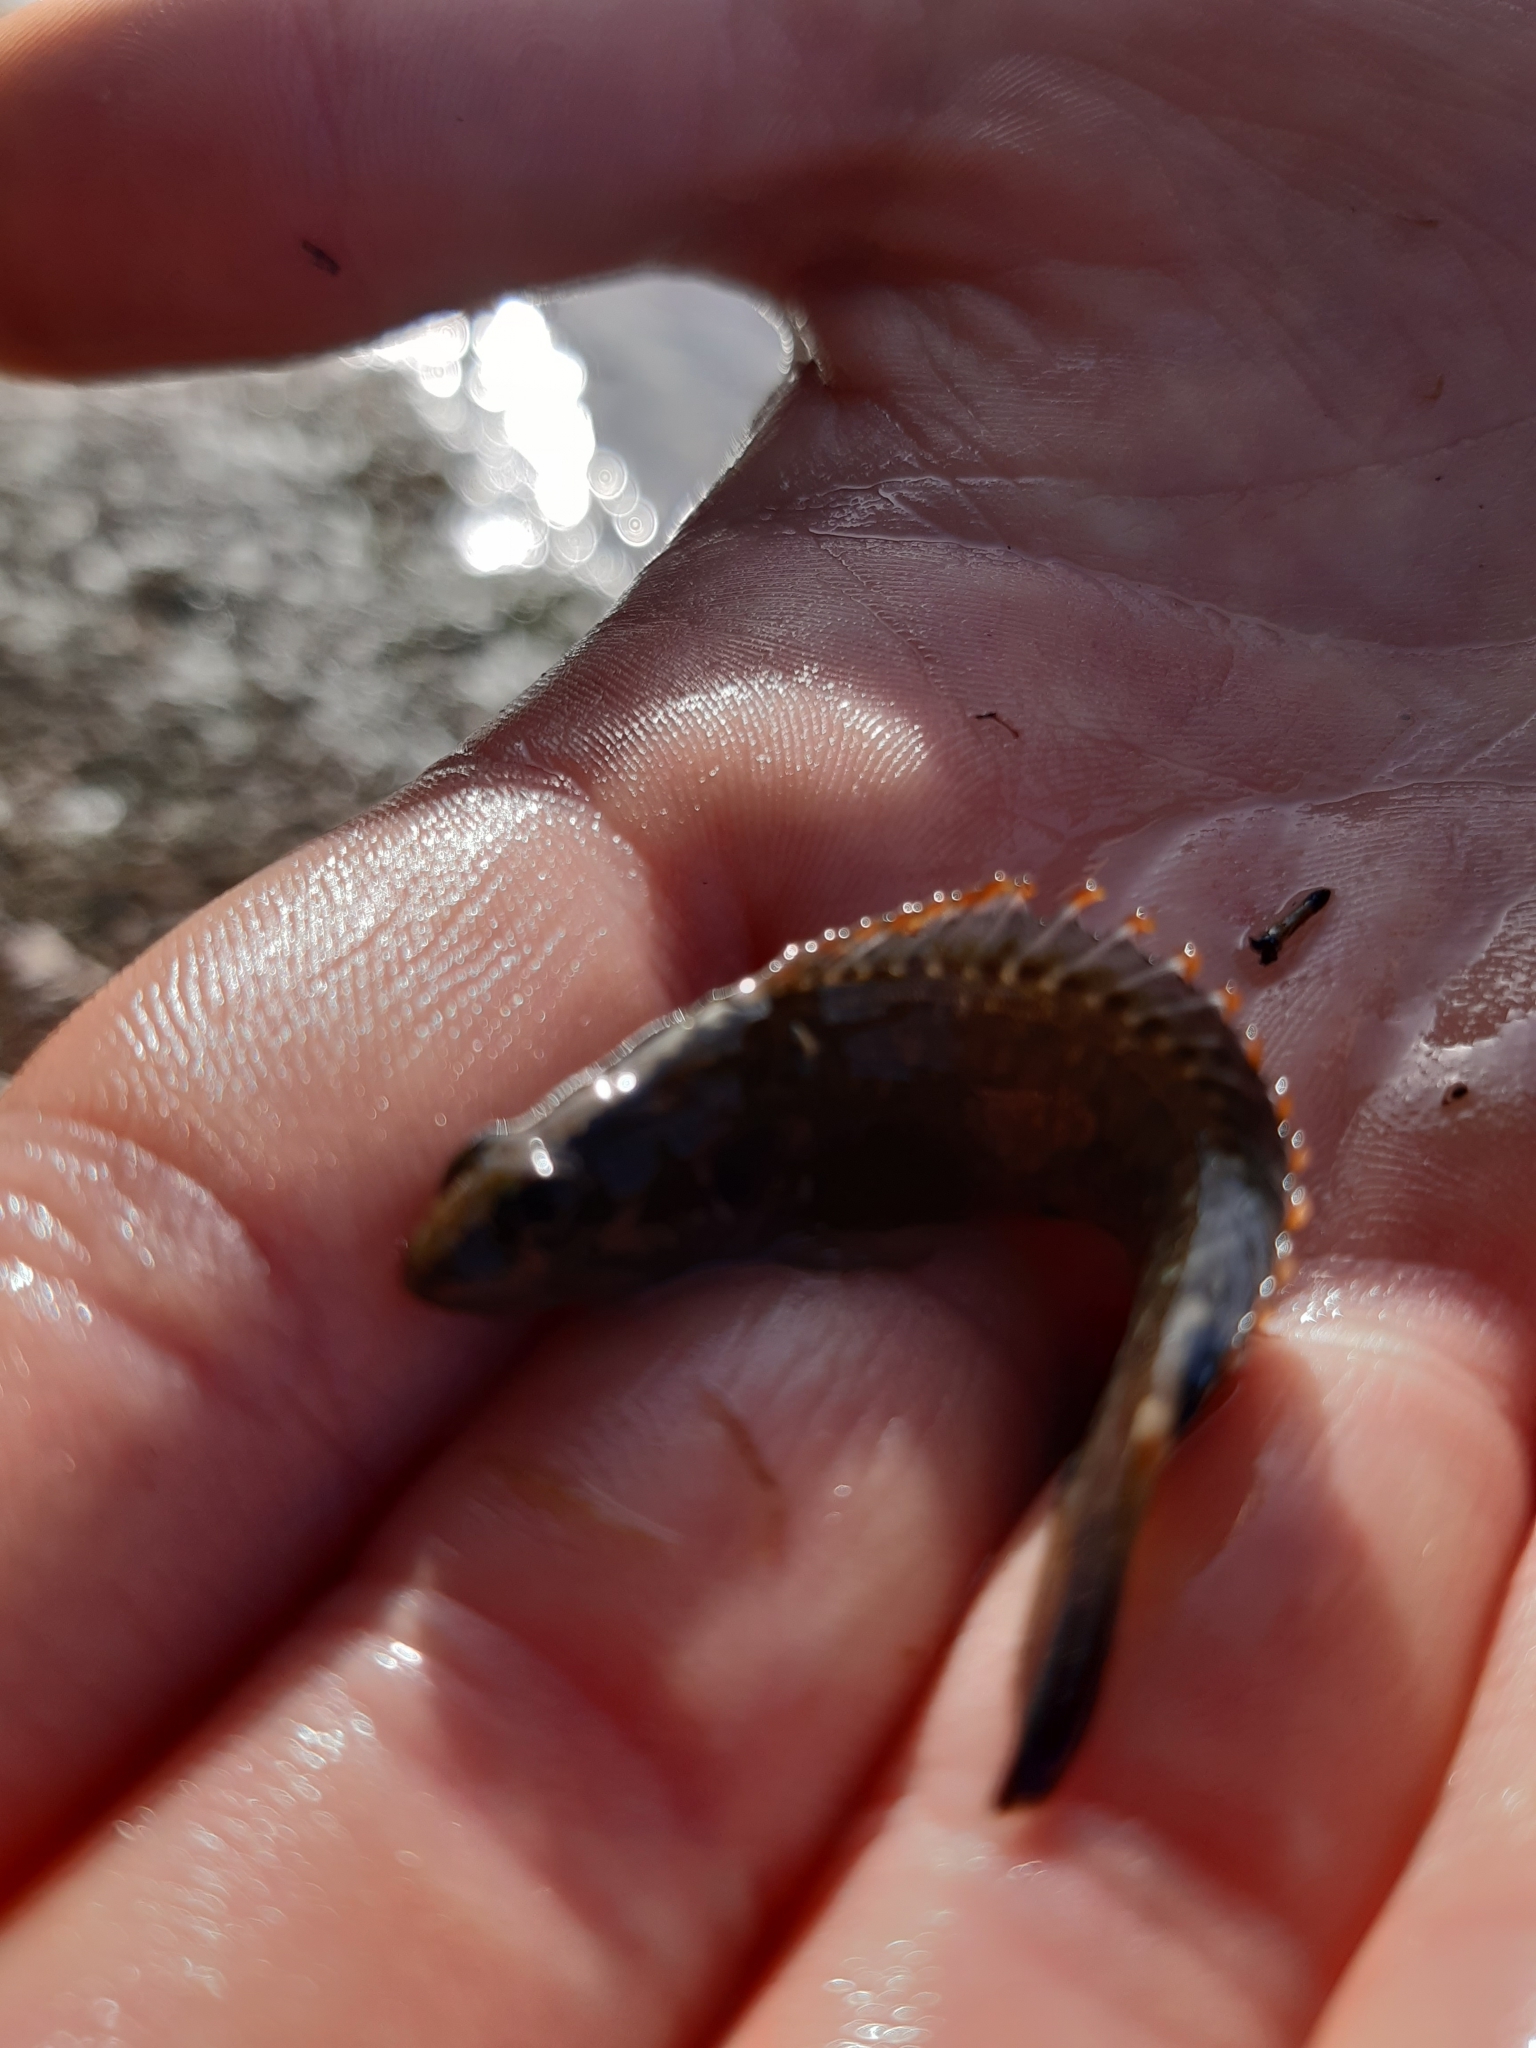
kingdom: Animalia
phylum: Chordata
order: Perciformes
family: Plesiopidae
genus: Acanthoclinus
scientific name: Acanthoclinus fuscus
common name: Olive rockfish
